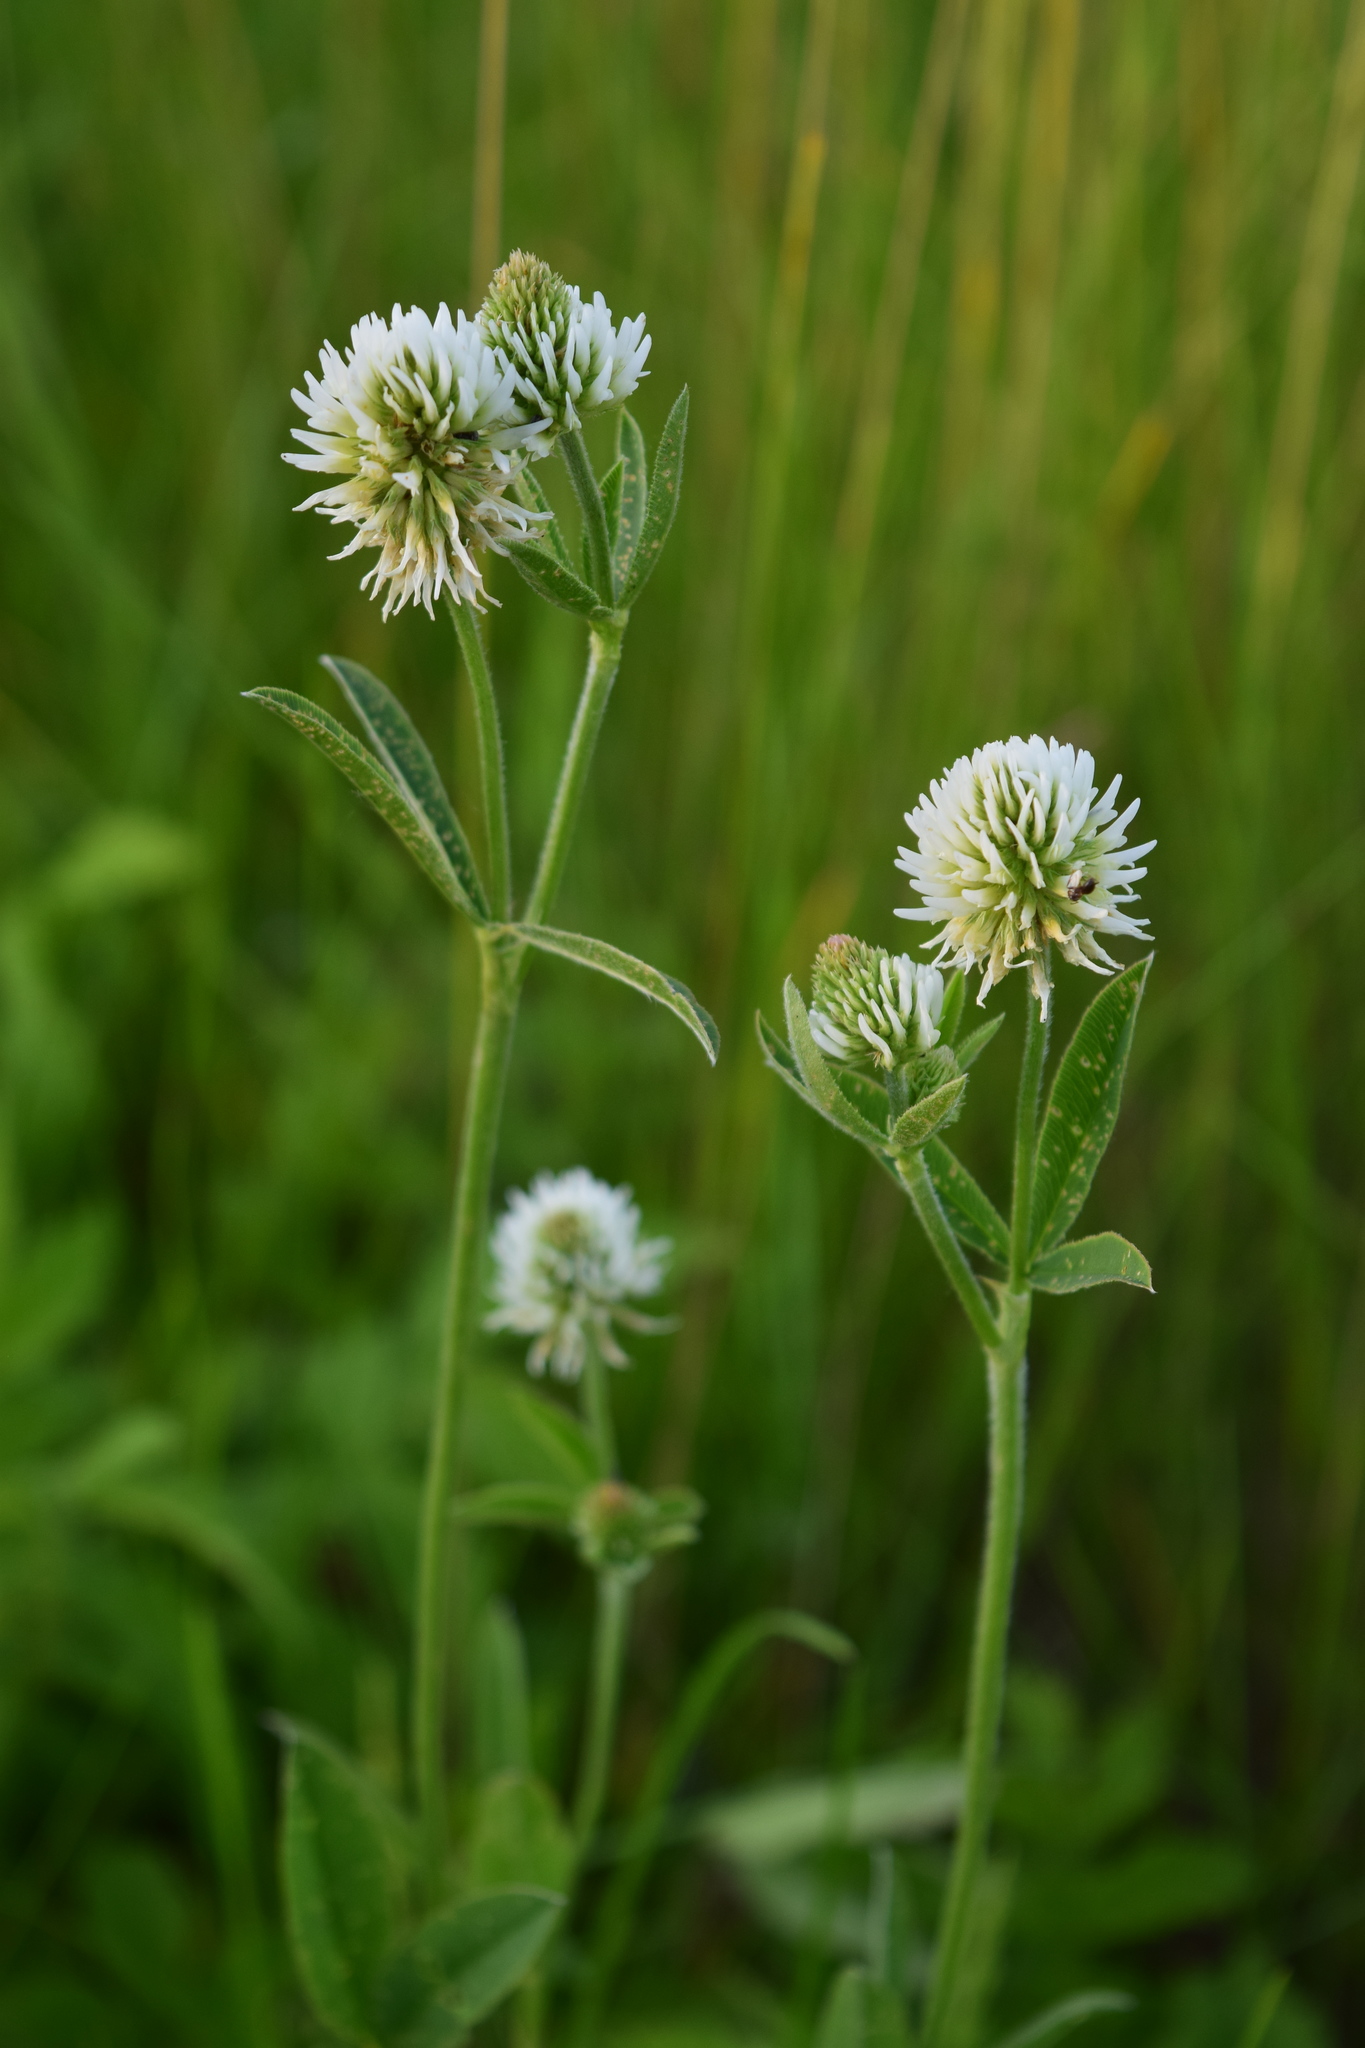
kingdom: Plantae
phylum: Tracheophyta
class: Magnoliopsida
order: Fabales
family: Fabaceae
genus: Trifolium
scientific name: Trifolium montanum
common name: Mountain clover
